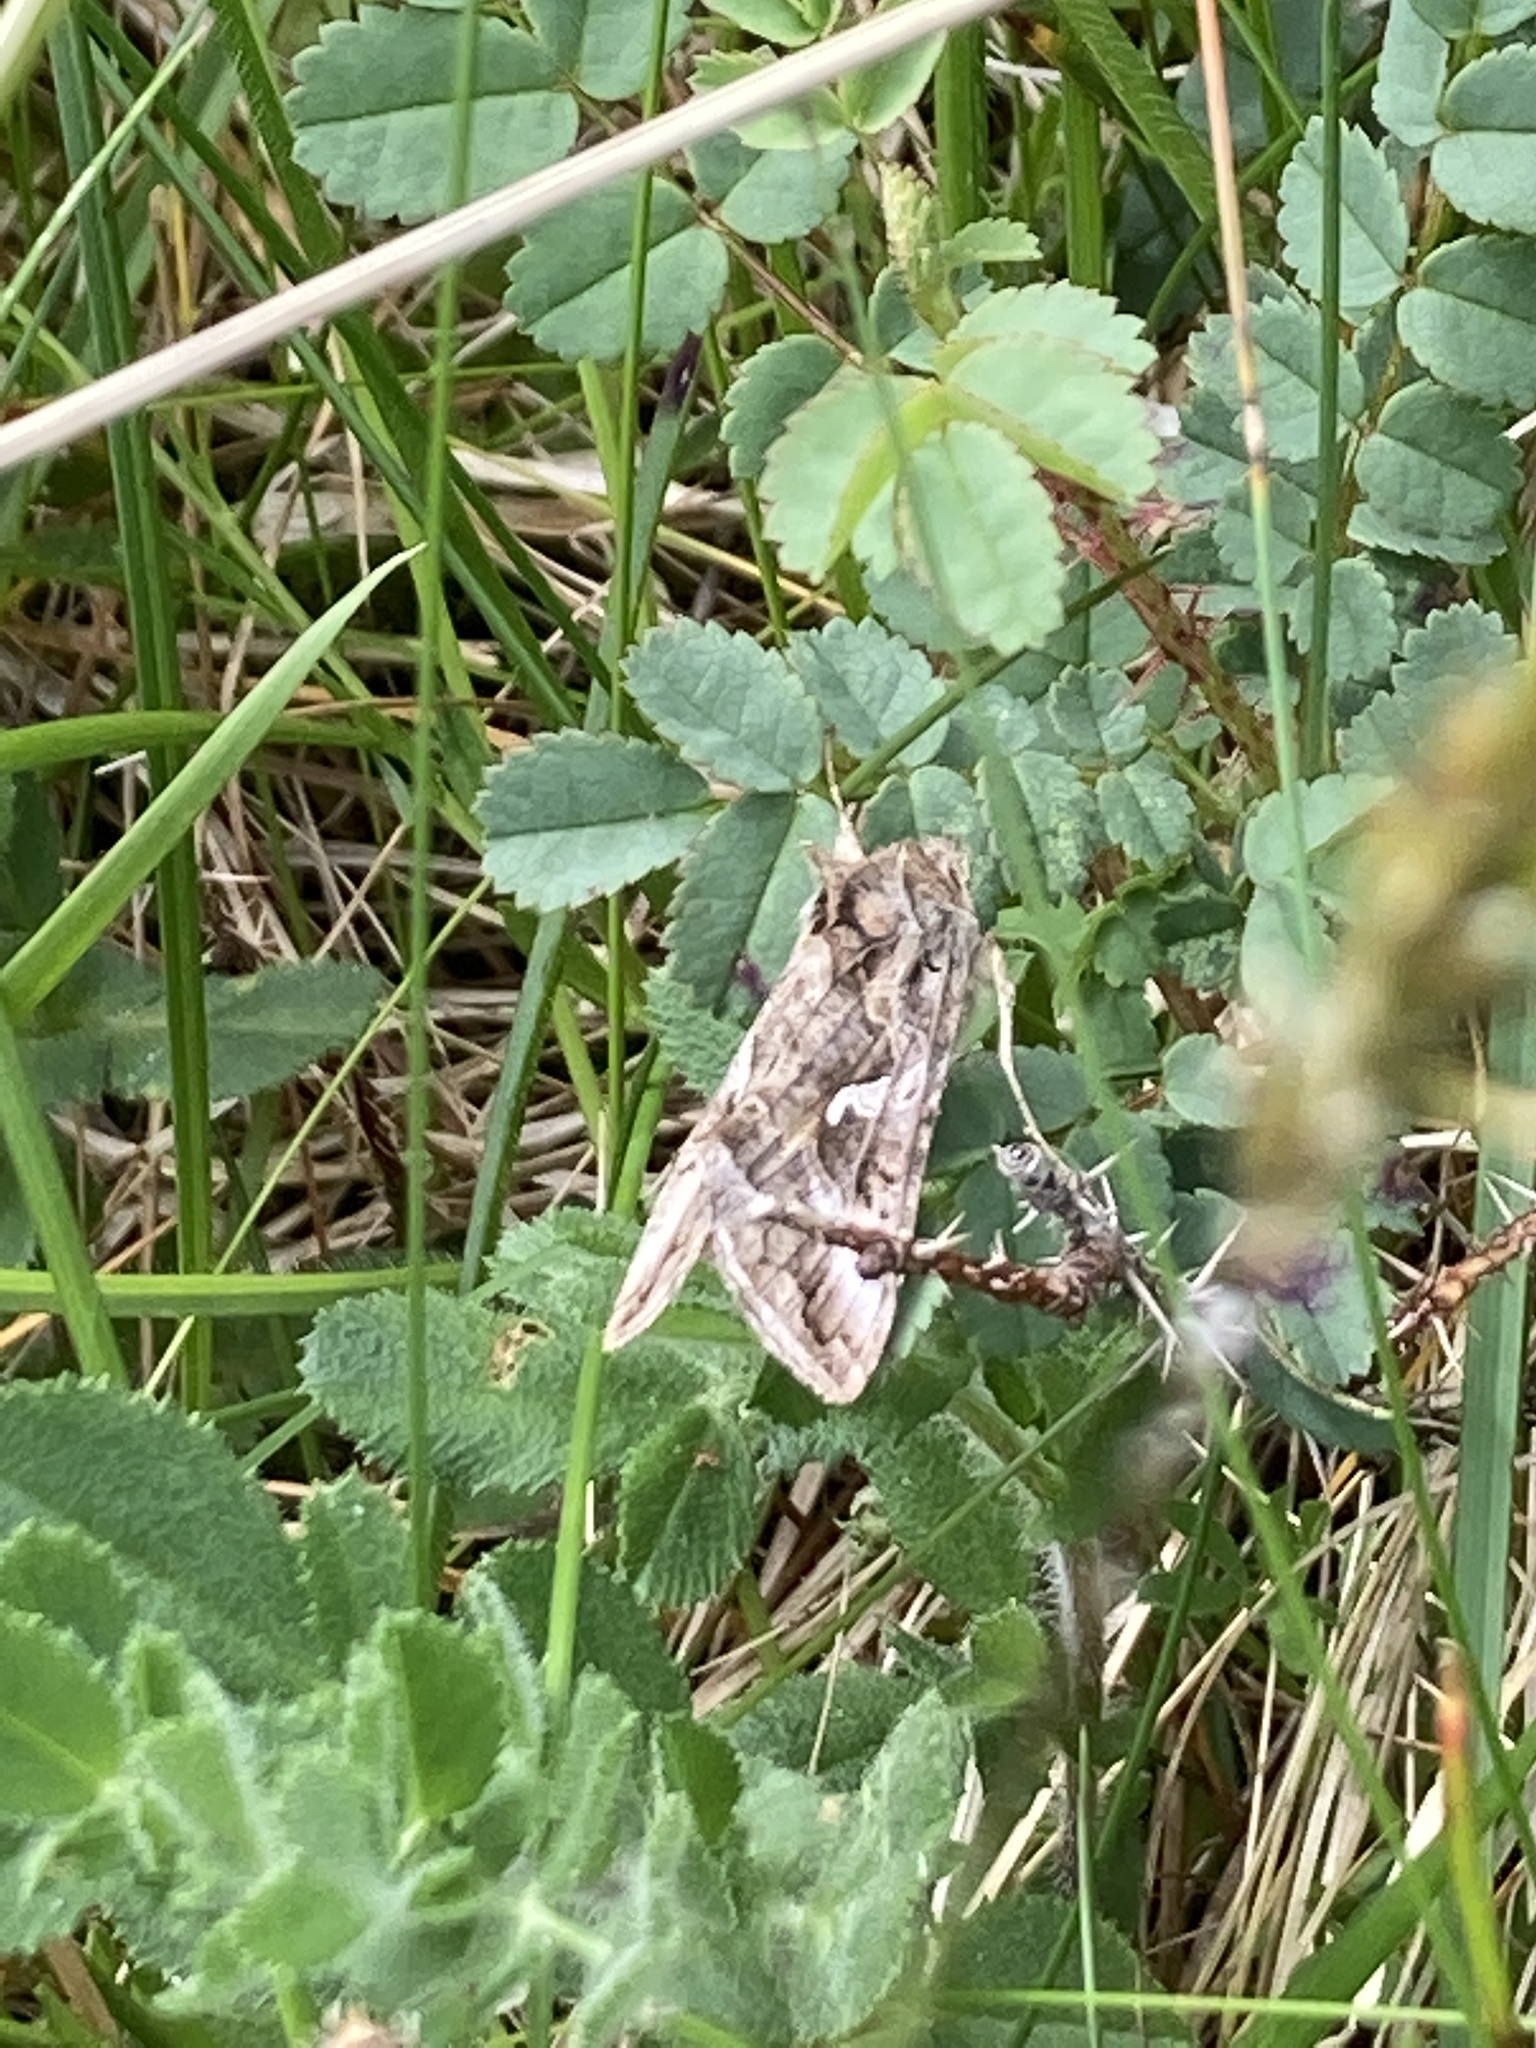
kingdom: Animalia
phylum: Arthropoda
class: Insecta
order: Lepidoptera
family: Noctuidae
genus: Autographa
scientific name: Autographa gamma
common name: Silver y
